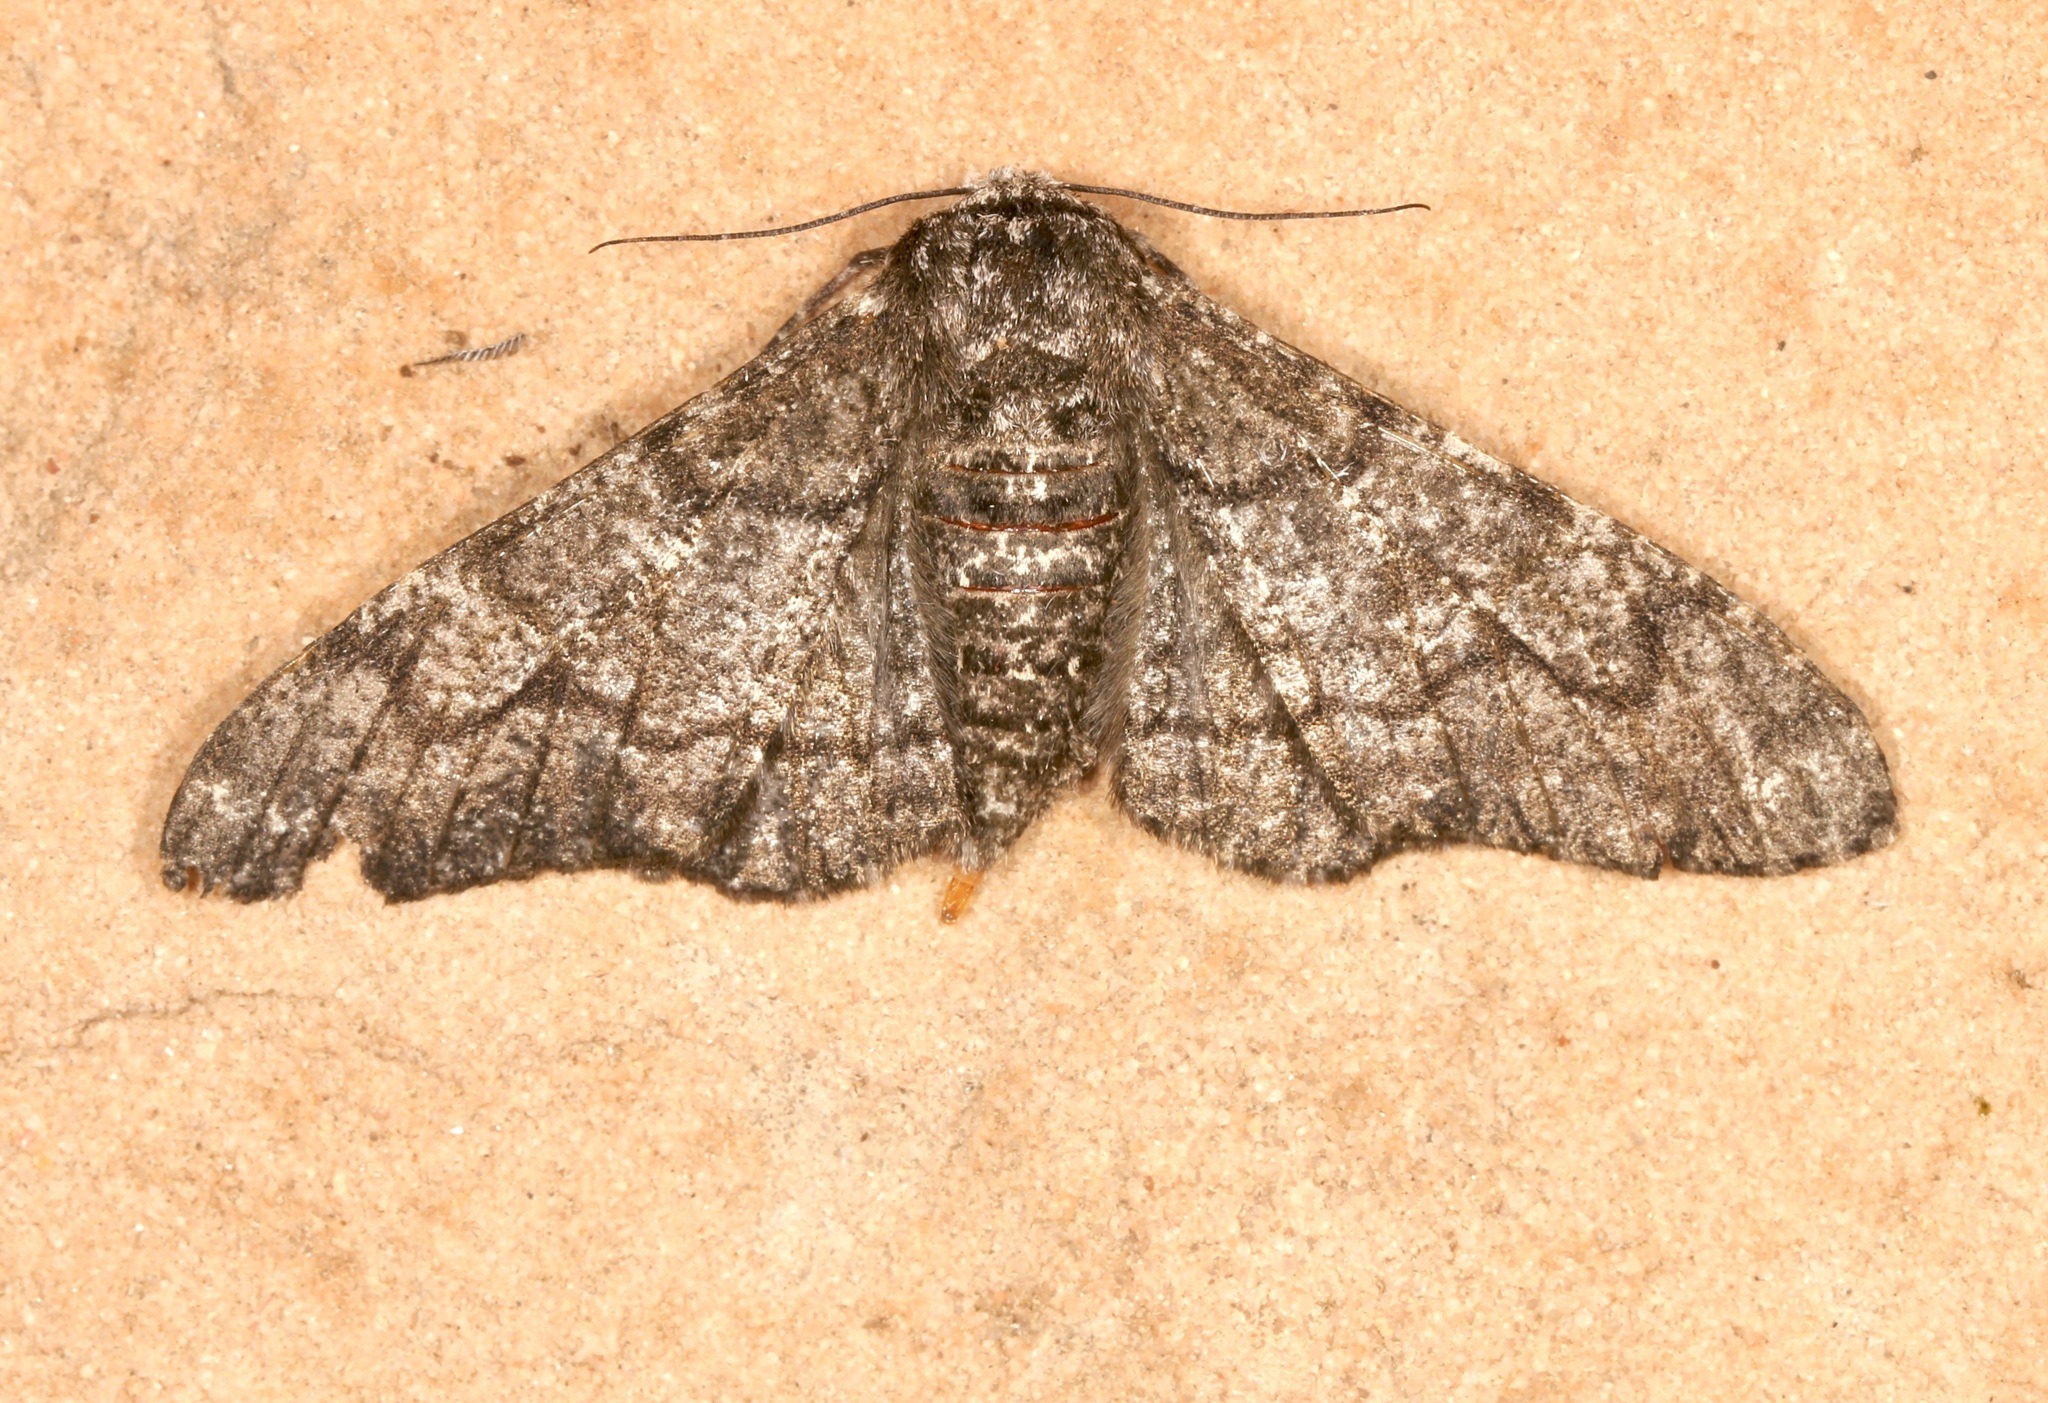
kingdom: Animalia
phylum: Arthropoda
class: Insecta
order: Lepidoptera
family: Geometridae
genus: Biston
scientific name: Biston betularia
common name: Peppered moth
